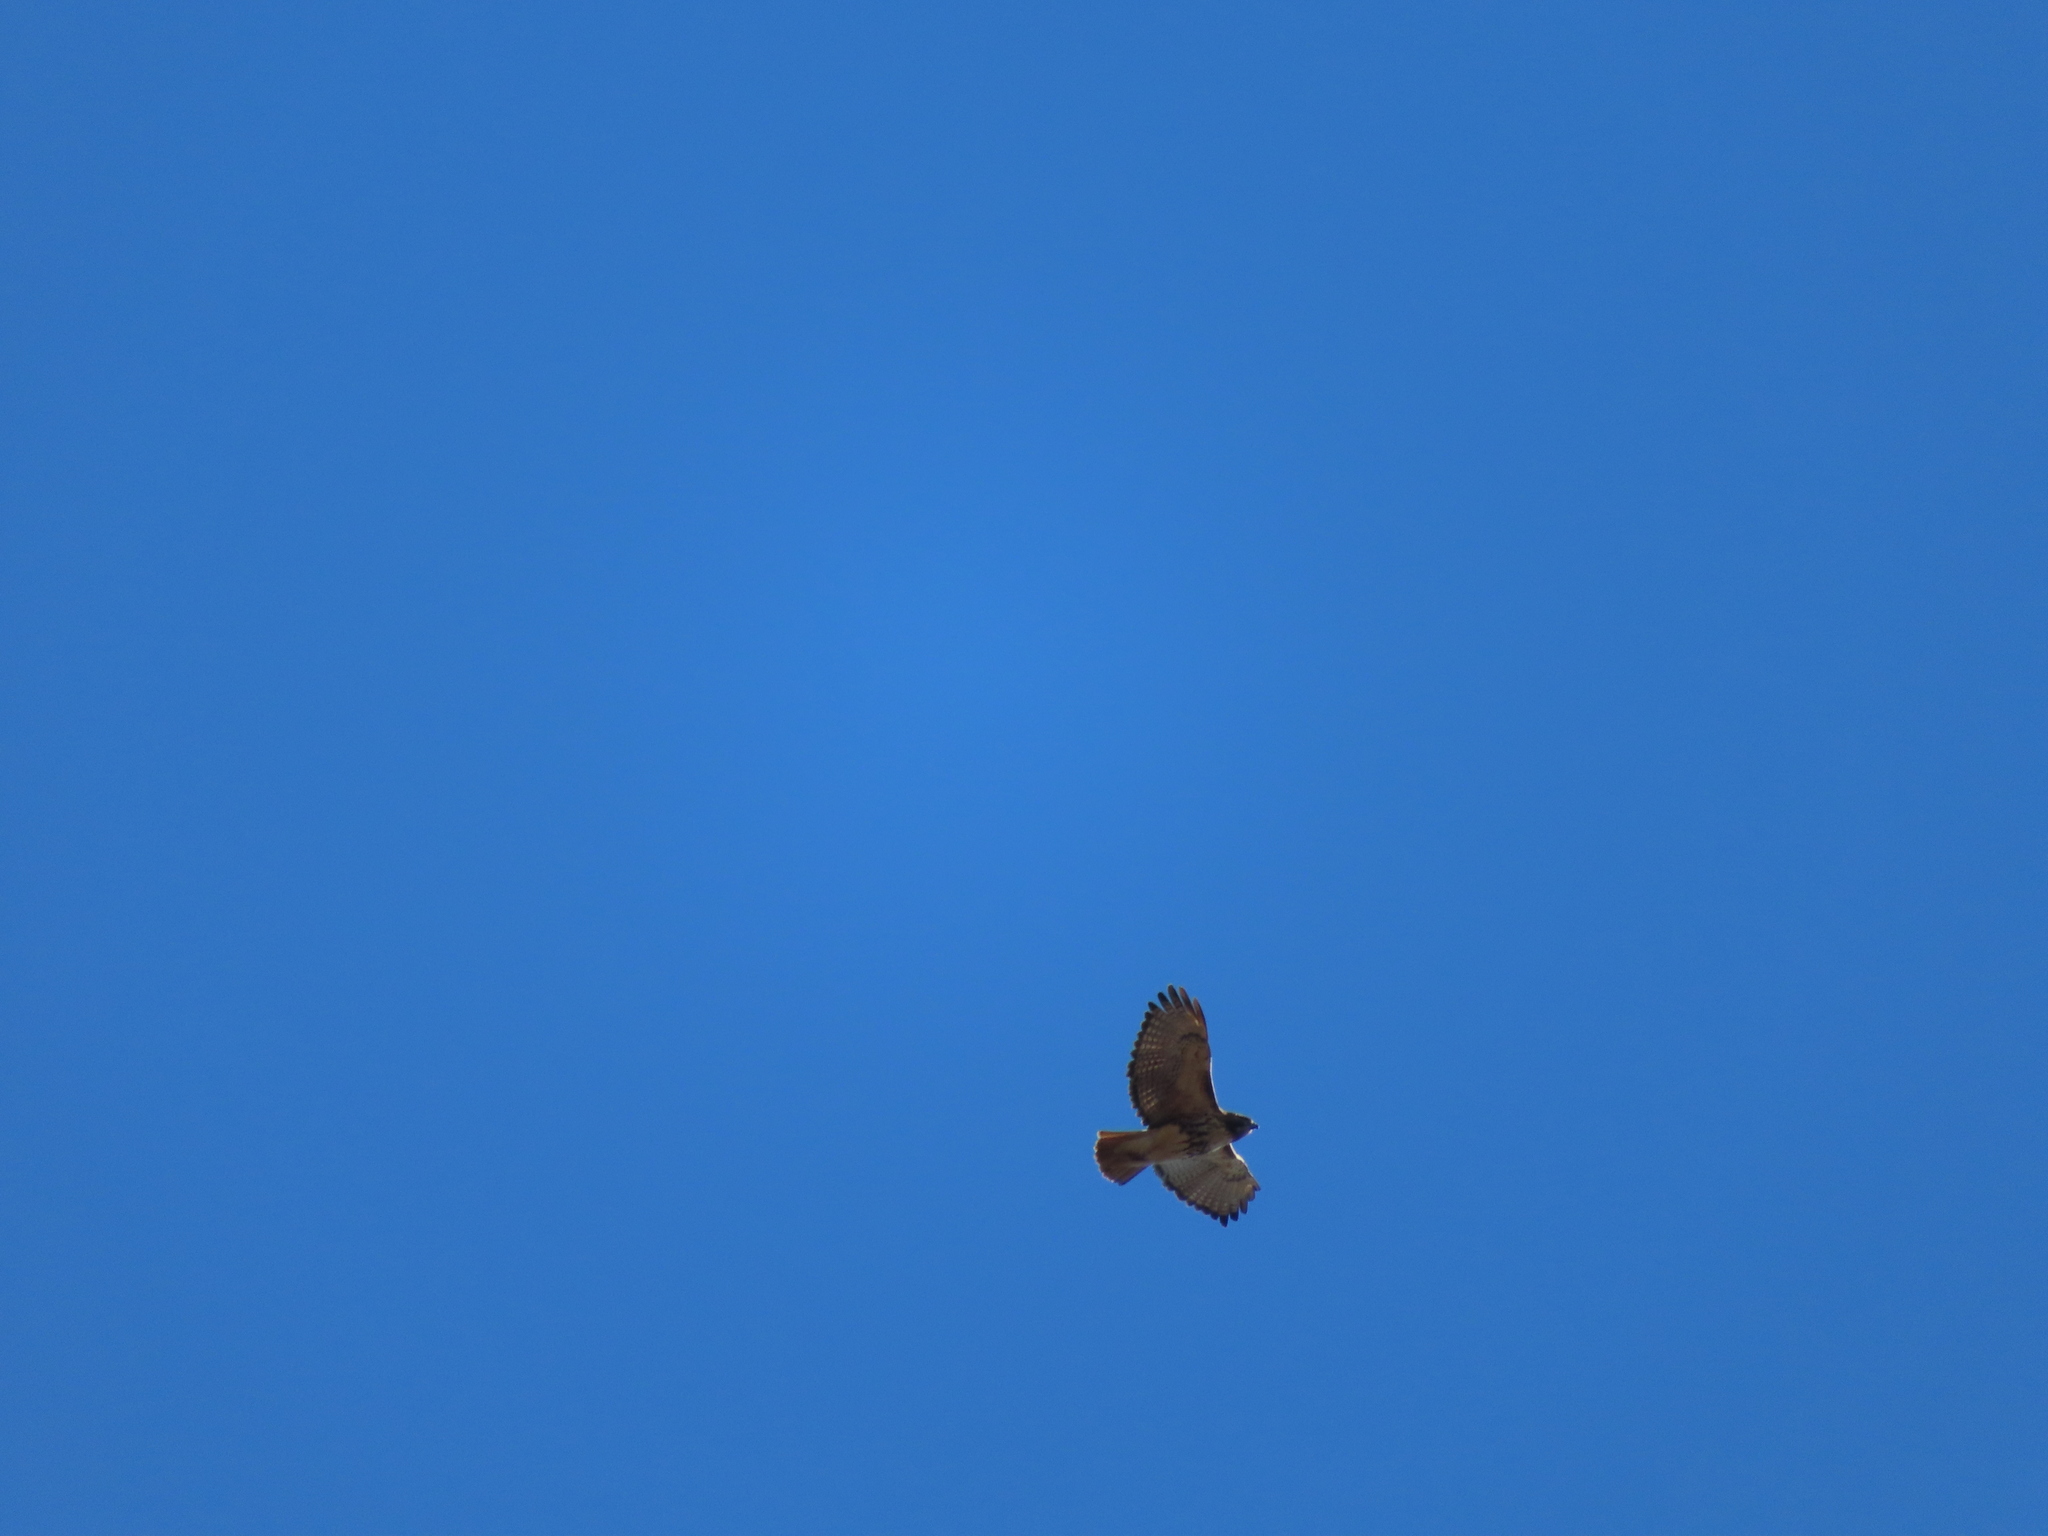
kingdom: Animalia
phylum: Chordata
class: Aves
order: Accipitriformes
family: Accipitridae
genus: Buteo
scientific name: Buteo jamaicensis
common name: Red-tailed hawk
